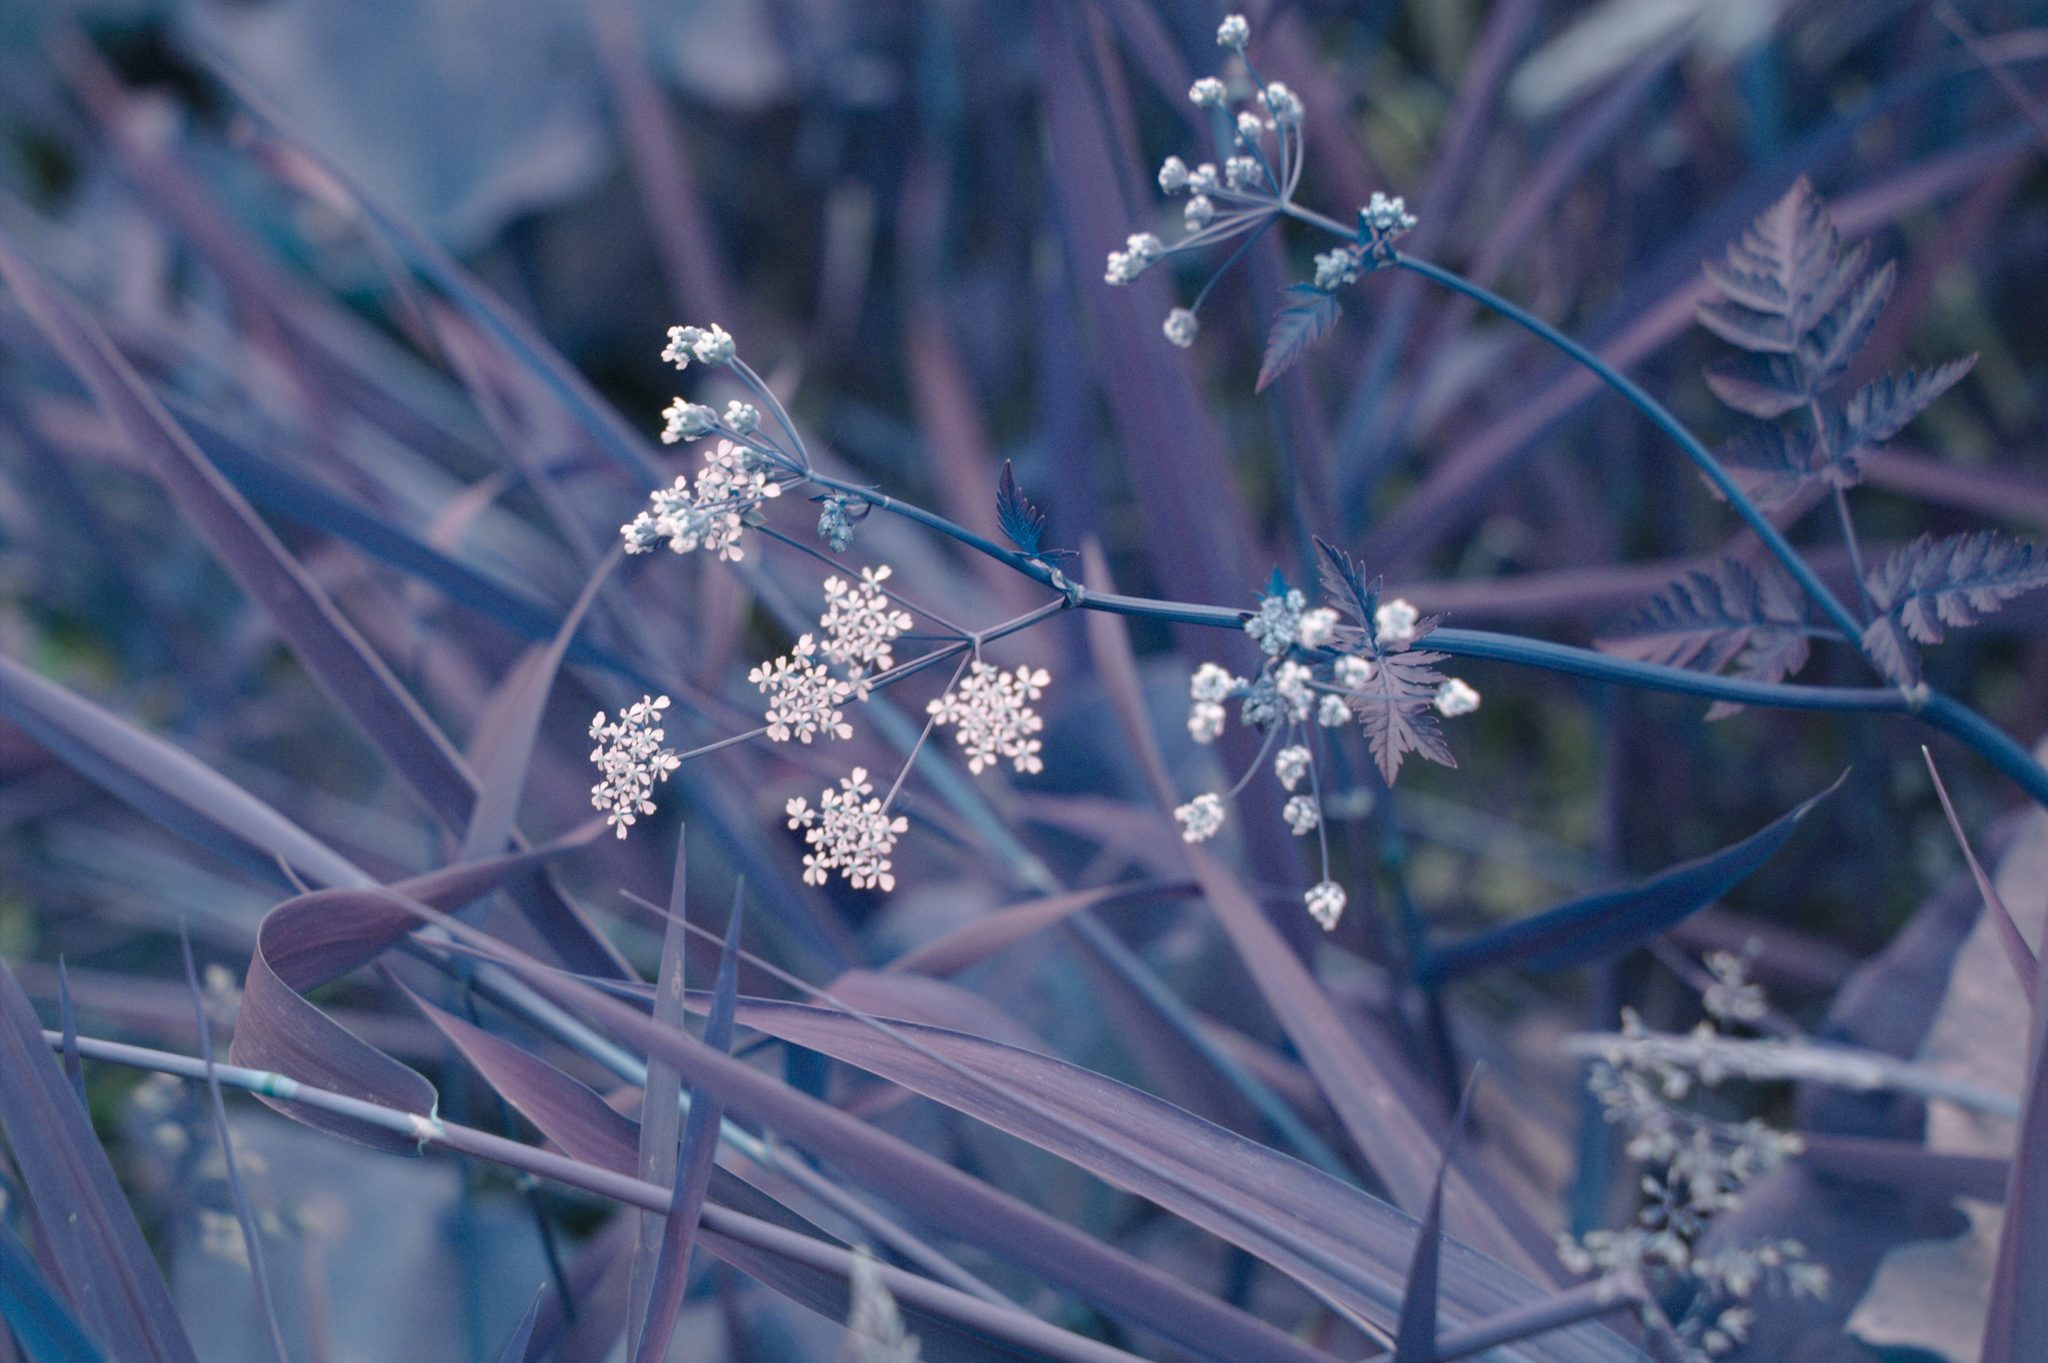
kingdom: Plantae
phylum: Tracheophyta
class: Magnoliopsida
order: Apiales
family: Apiaceae
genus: Anthriscus
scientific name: Anthriscus sylvestris
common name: Cow parsley
